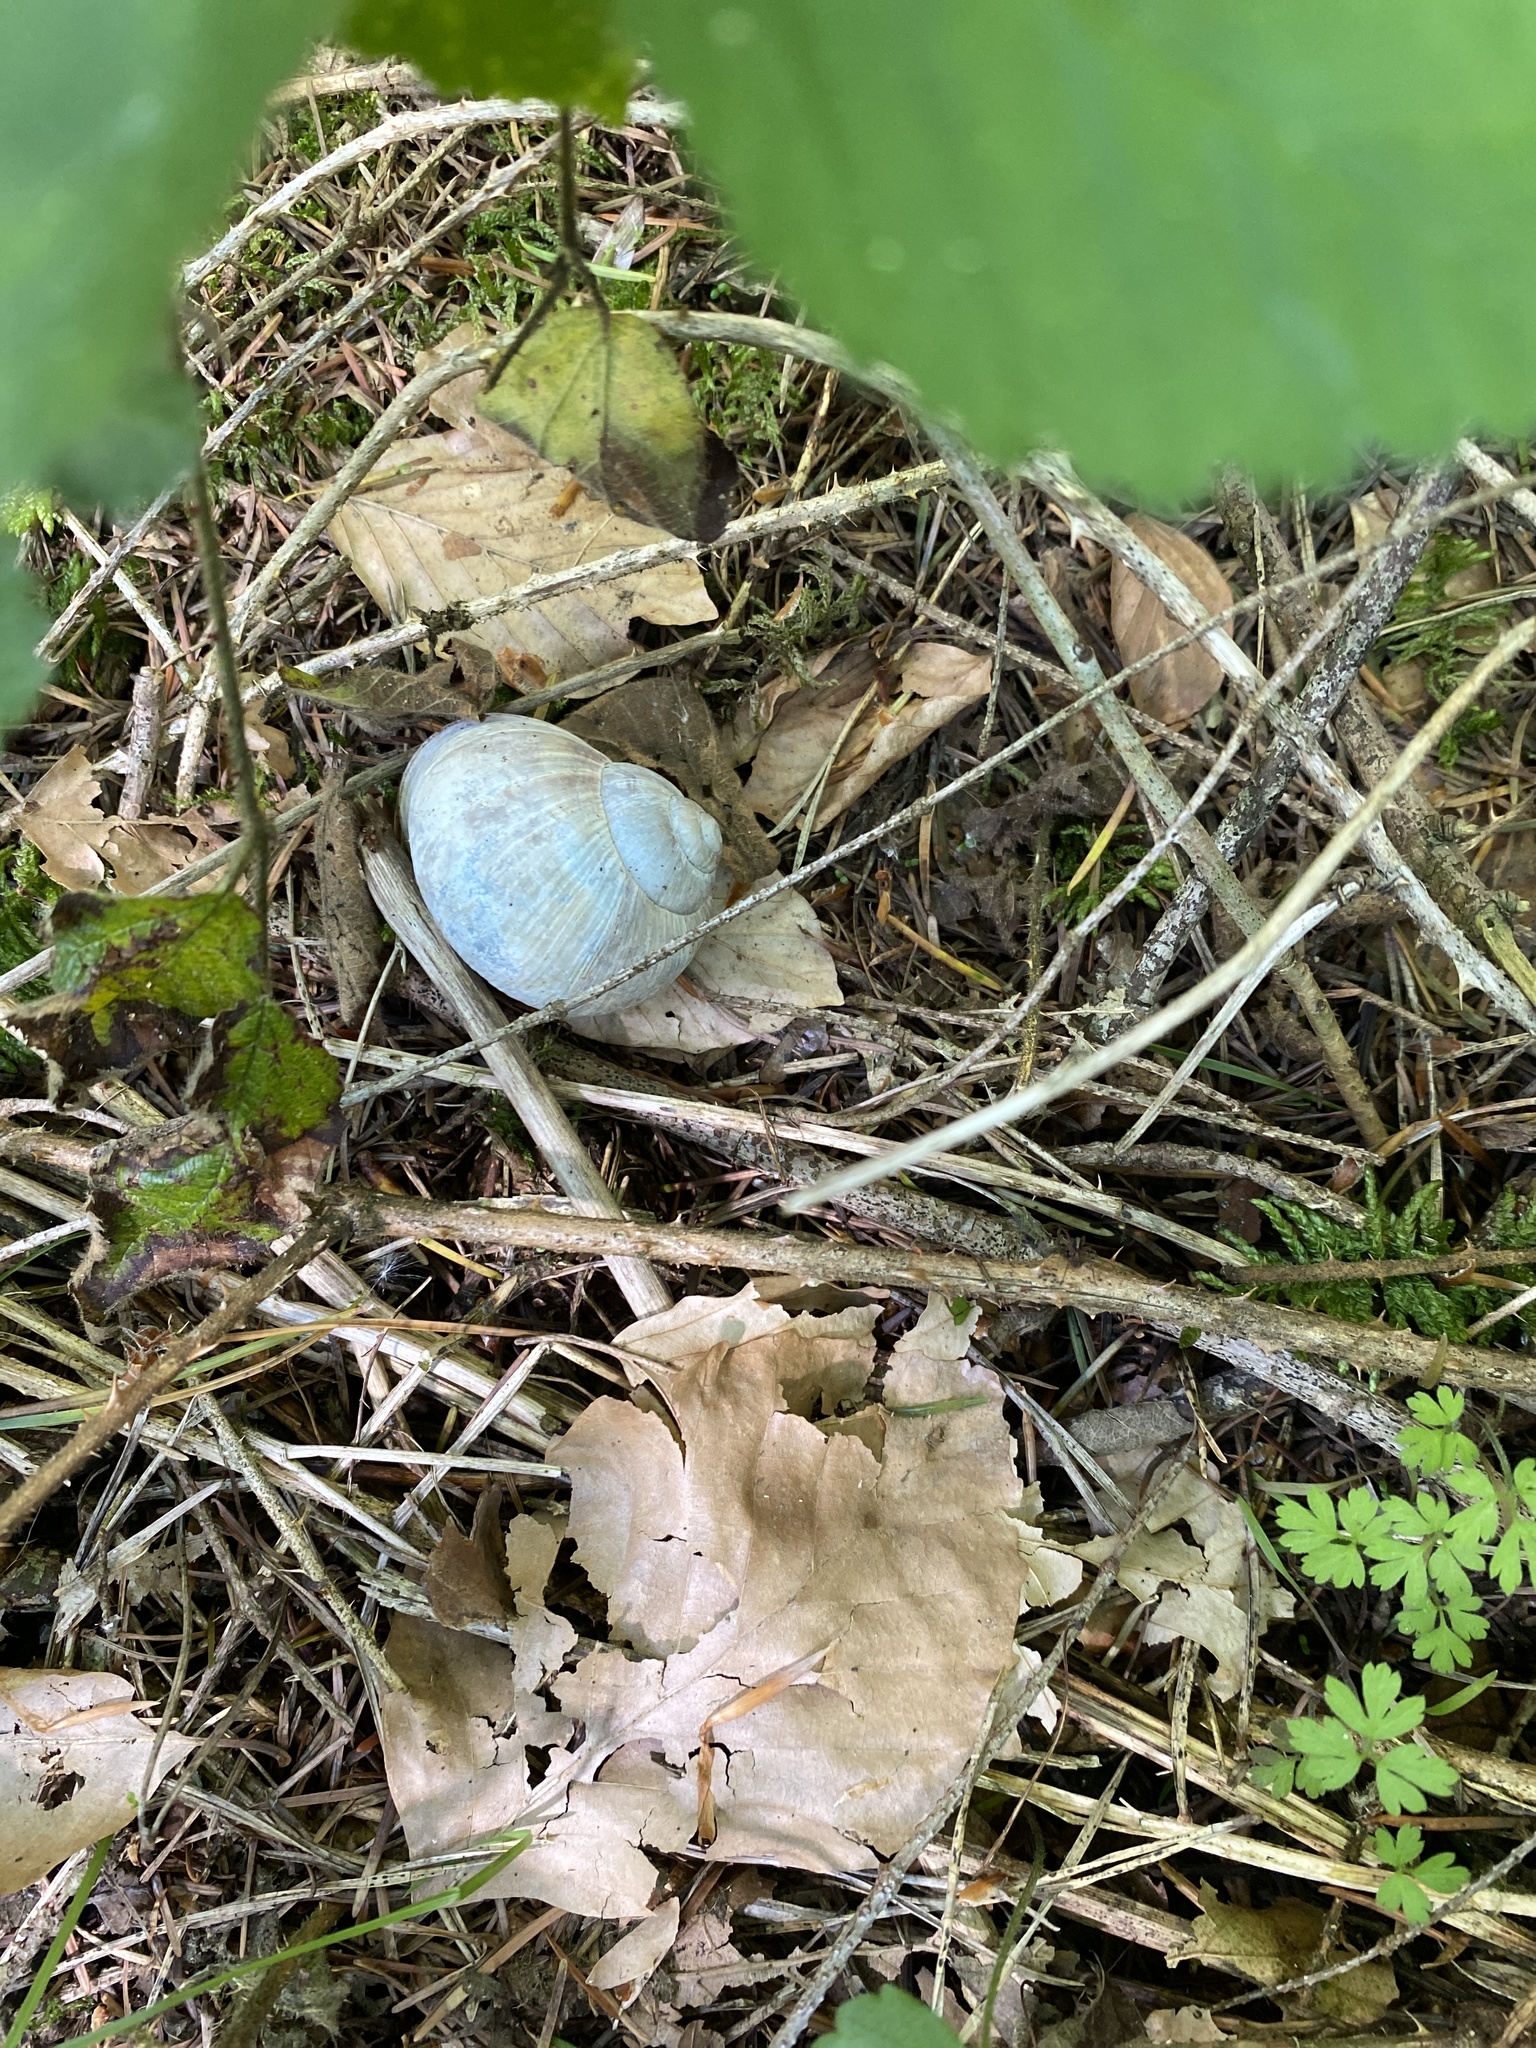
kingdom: Animalia
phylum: Mollusca
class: Gastropoda
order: Stylommatophora
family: Helicidae
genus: Helix
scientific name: Helix pomatia
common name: Roman snail
